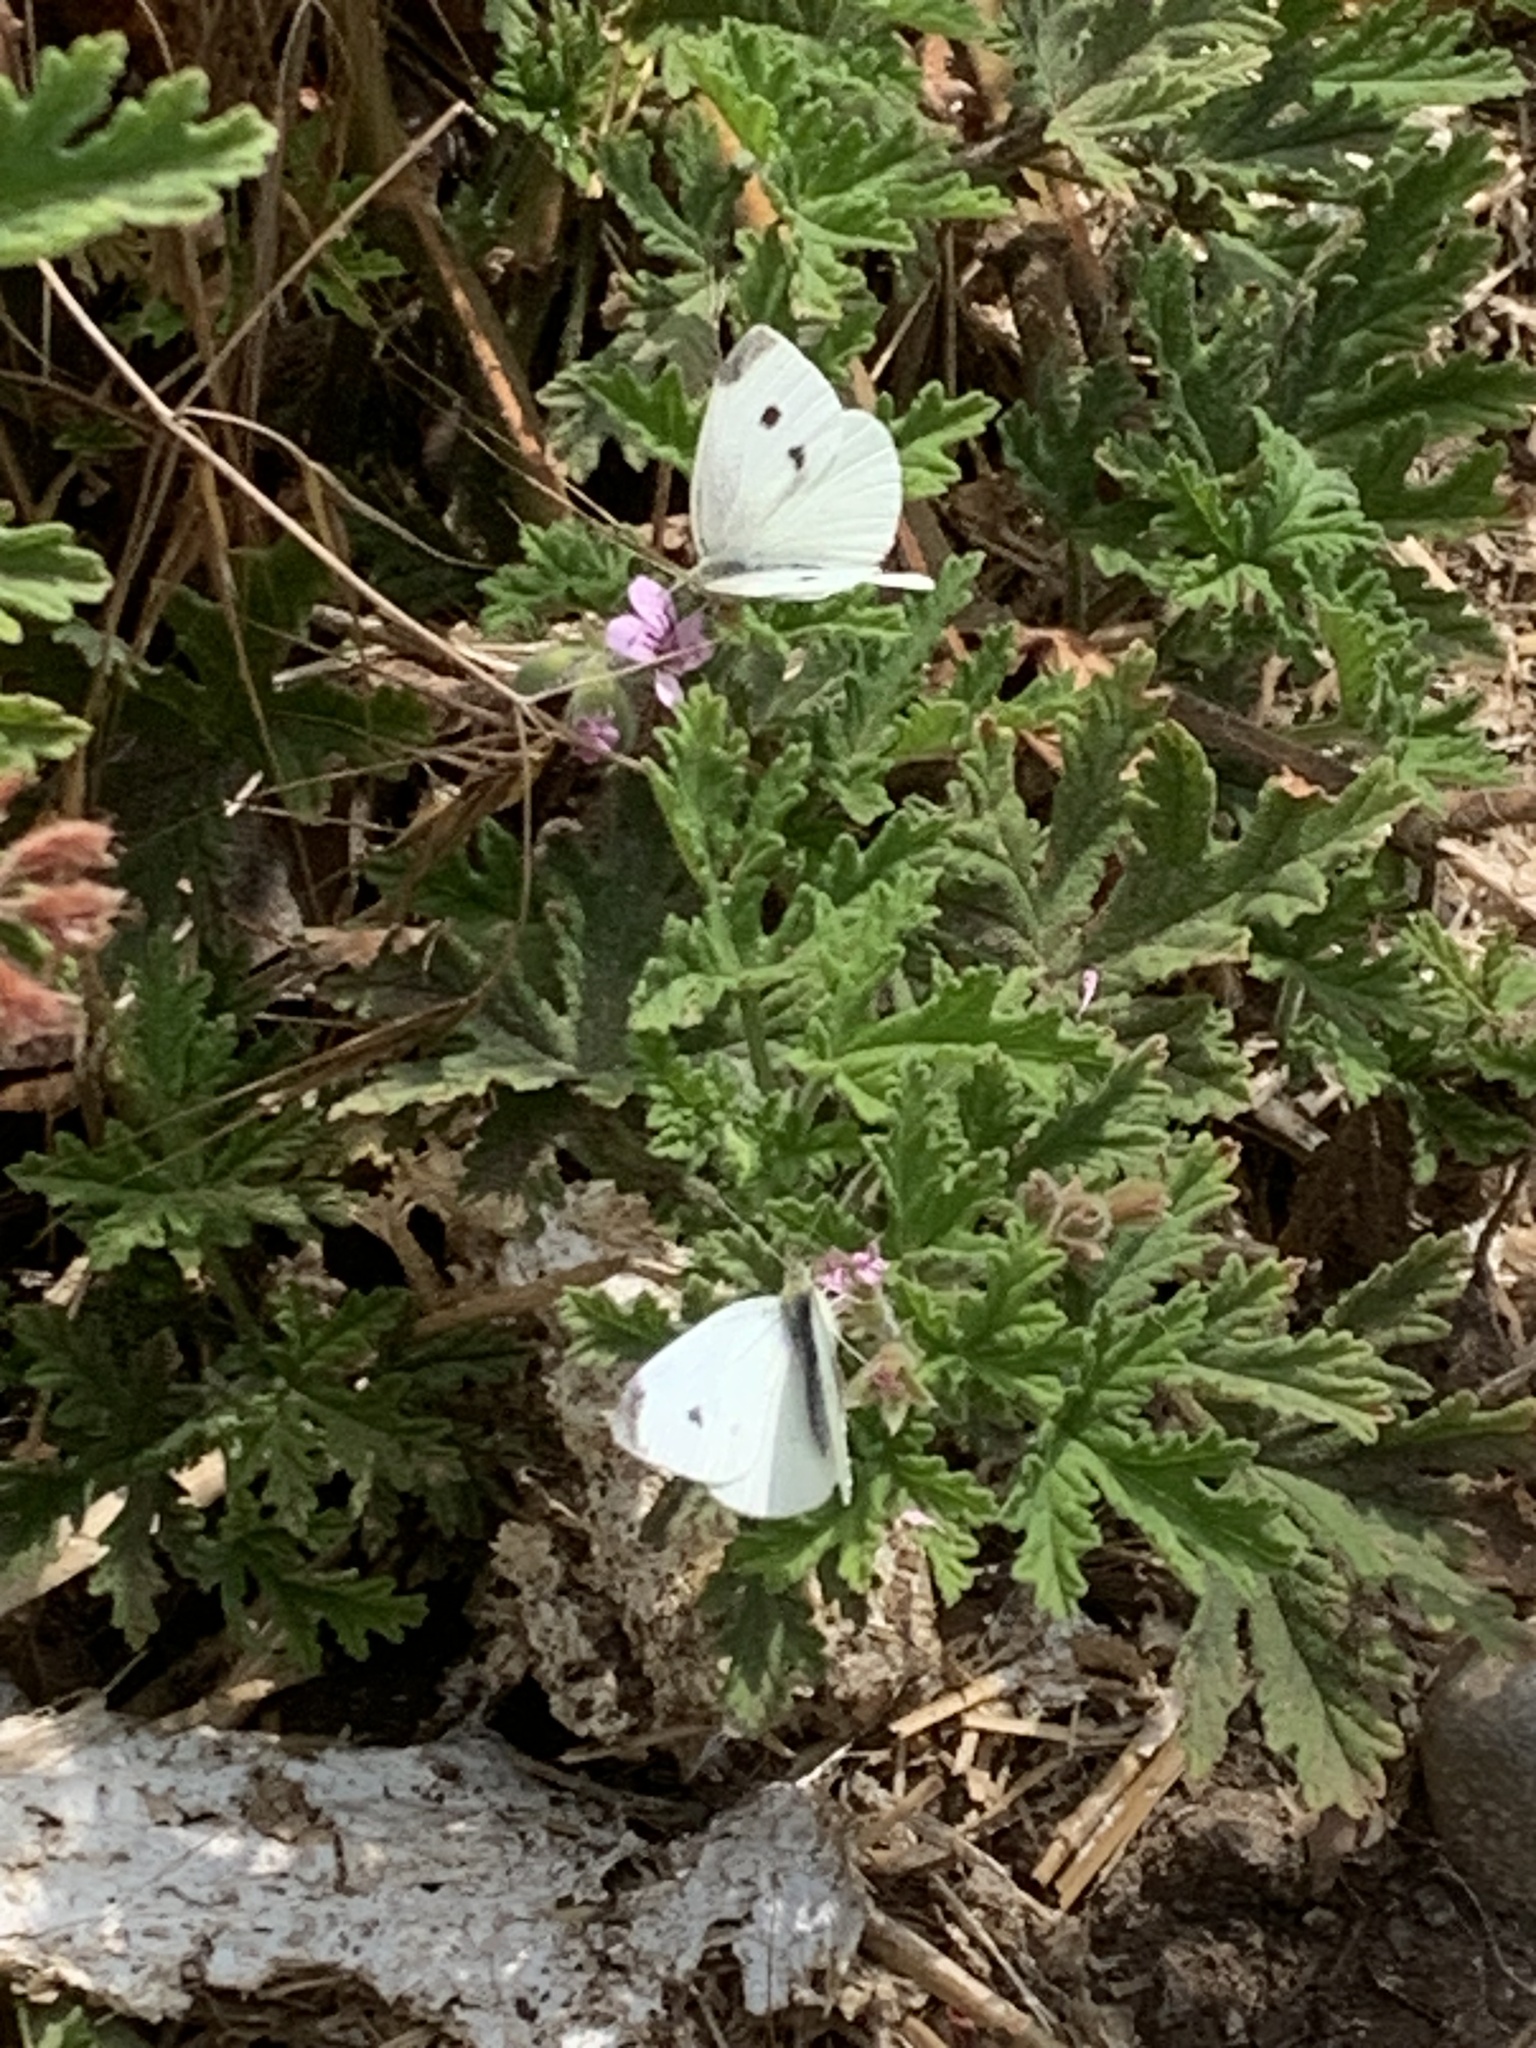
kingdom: Animalia
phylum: Arthropoda
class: Insecta
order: Lepidoptera
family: Pieridae
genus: Pieris
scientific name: Pieris rapae
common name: Small white
